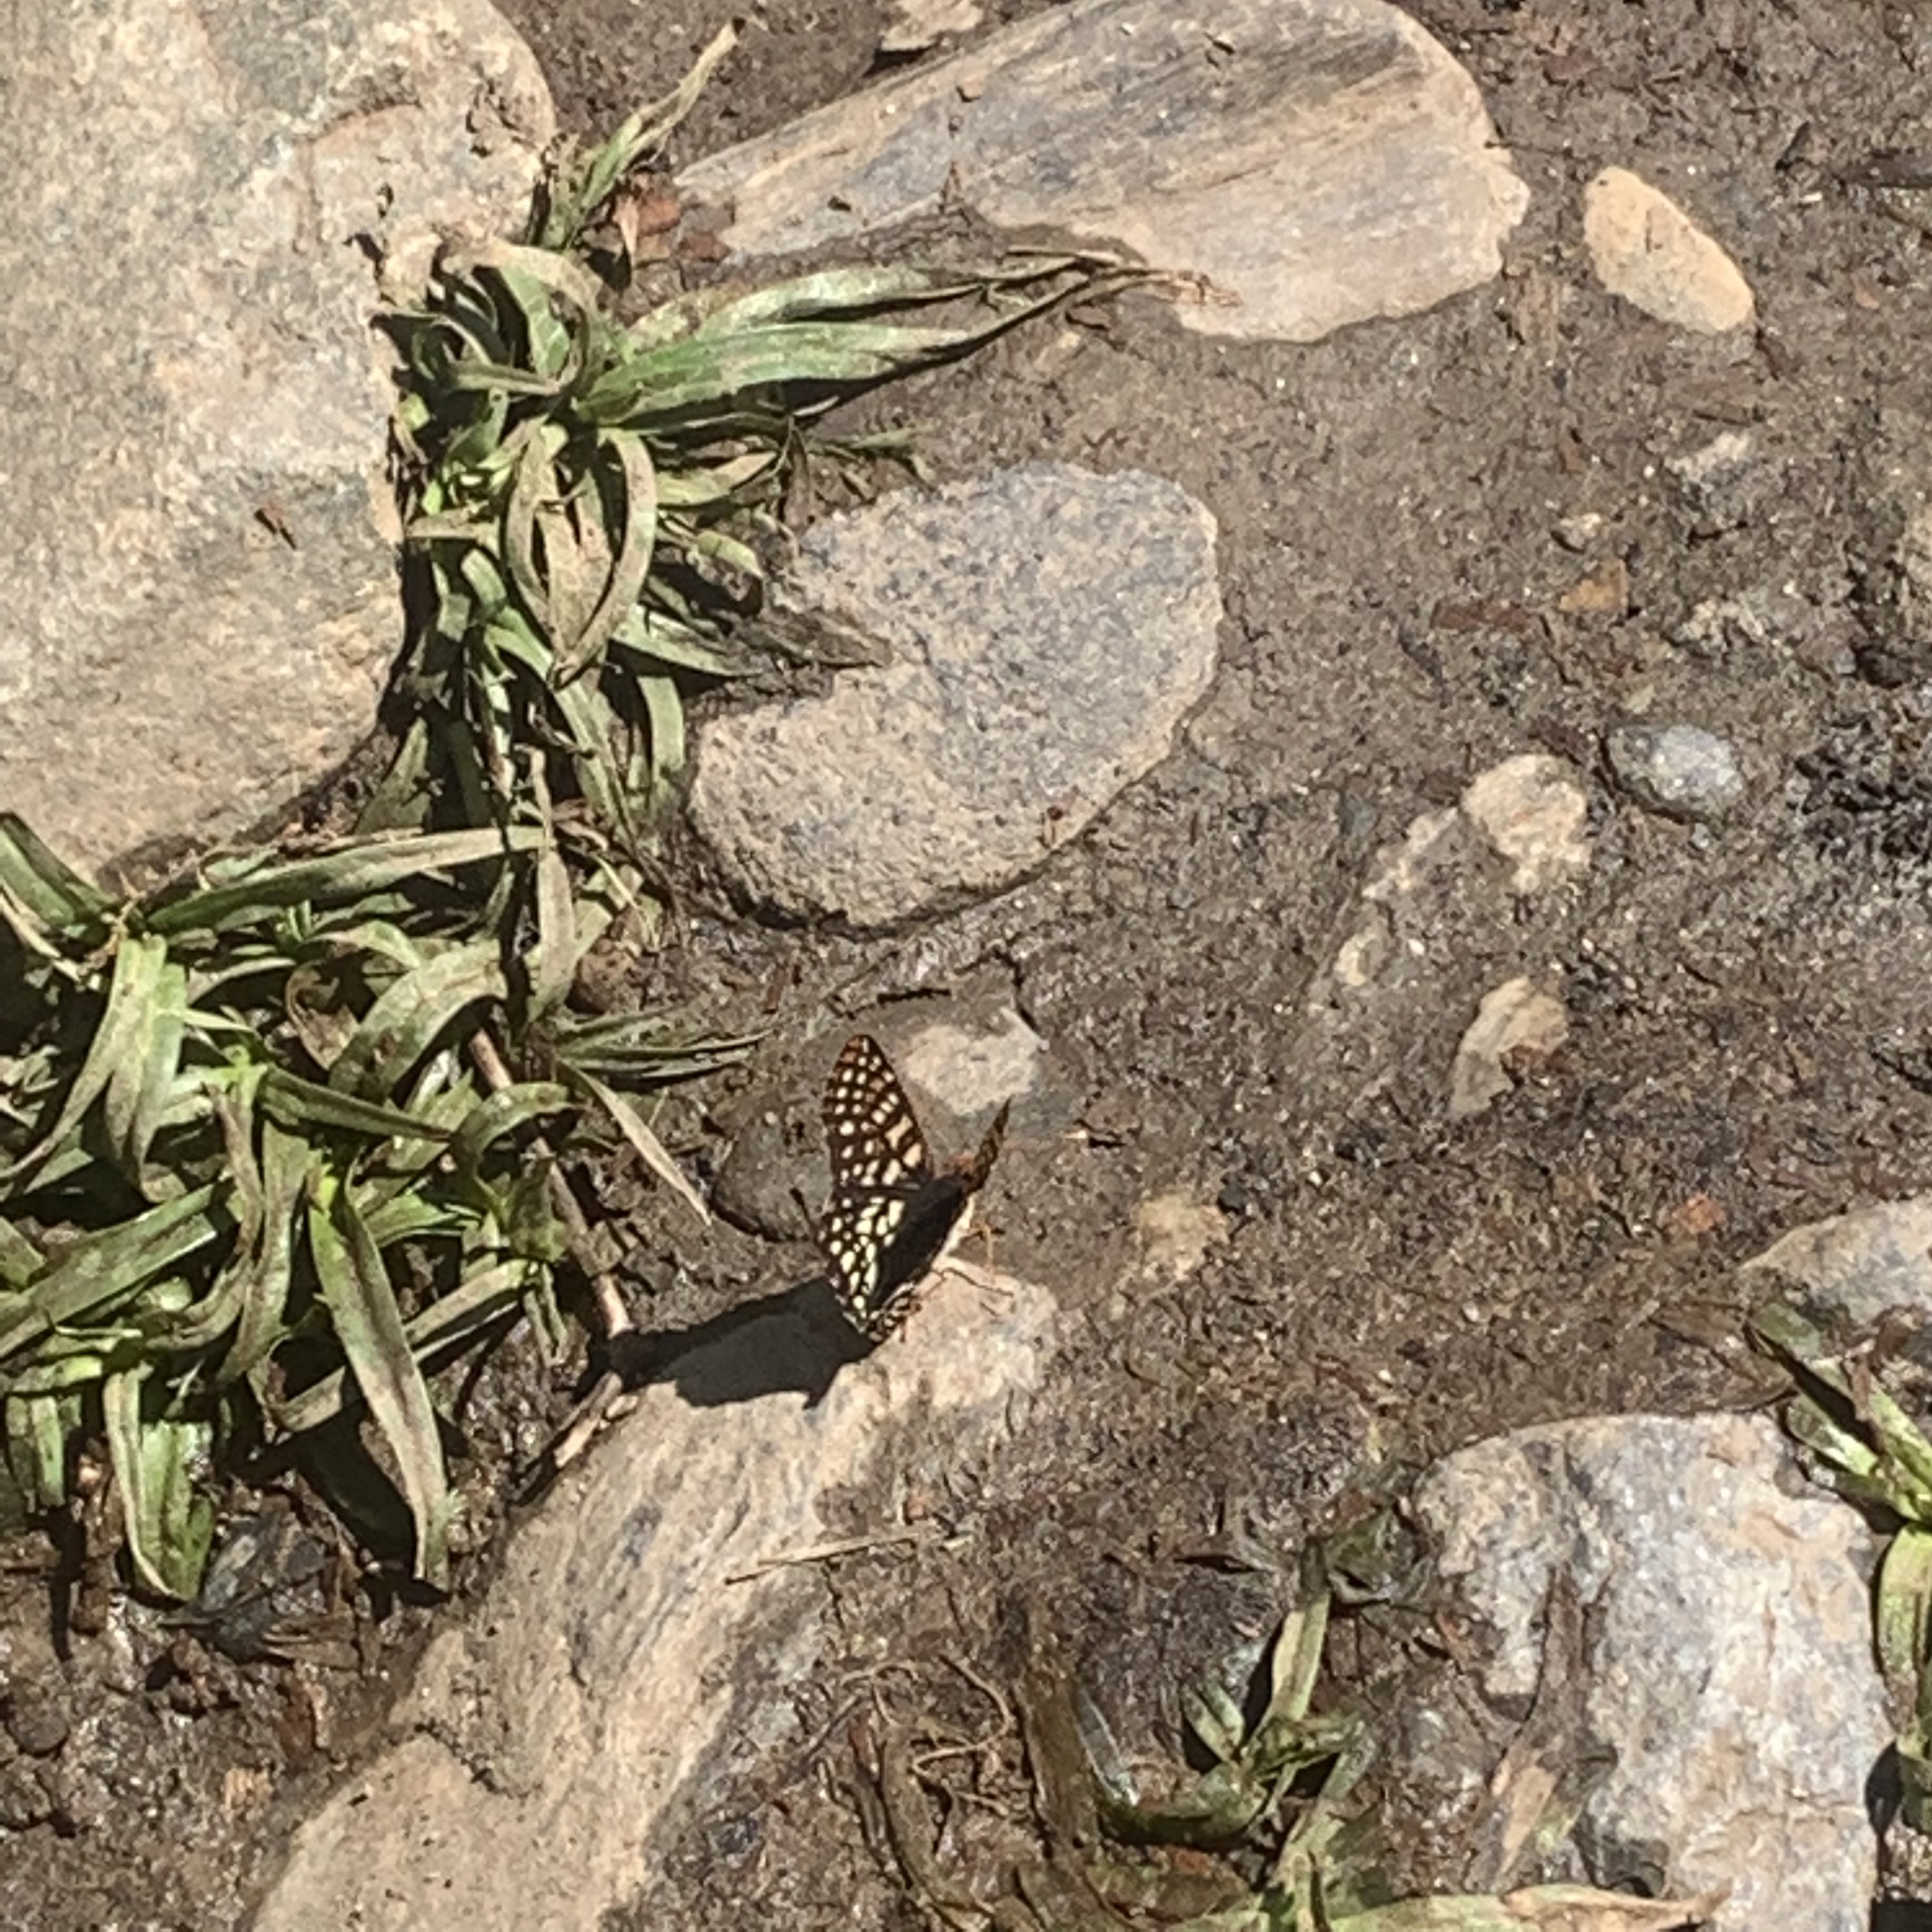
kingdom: Animalia
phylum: Arthropoda
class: Insecta
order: Lepidoptera
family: Nymphalidae
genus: Occidryas
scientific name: Occidryas chalcedona
